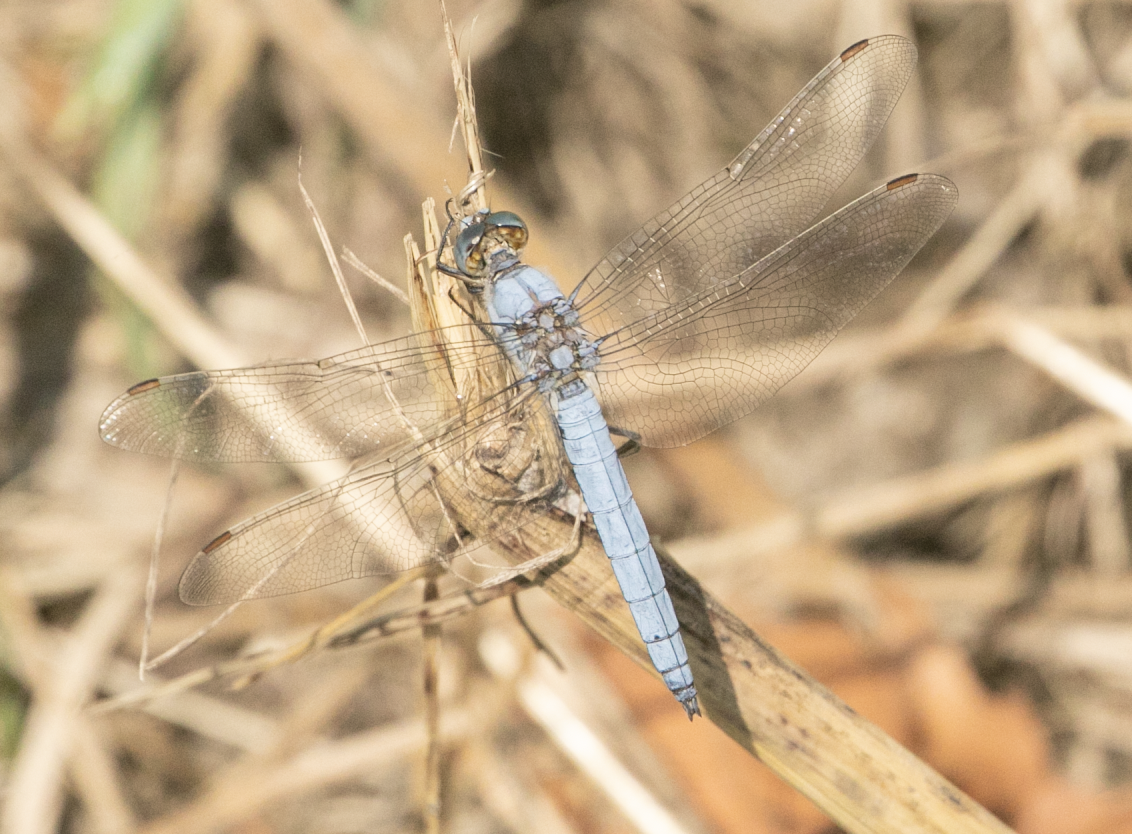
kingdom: Animalia
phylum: Arthropoda
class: Insecta
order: Odonata
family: Libellulidae
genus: Orthetrum
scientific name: Orthetrum brunneum
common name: Southern skimmer
